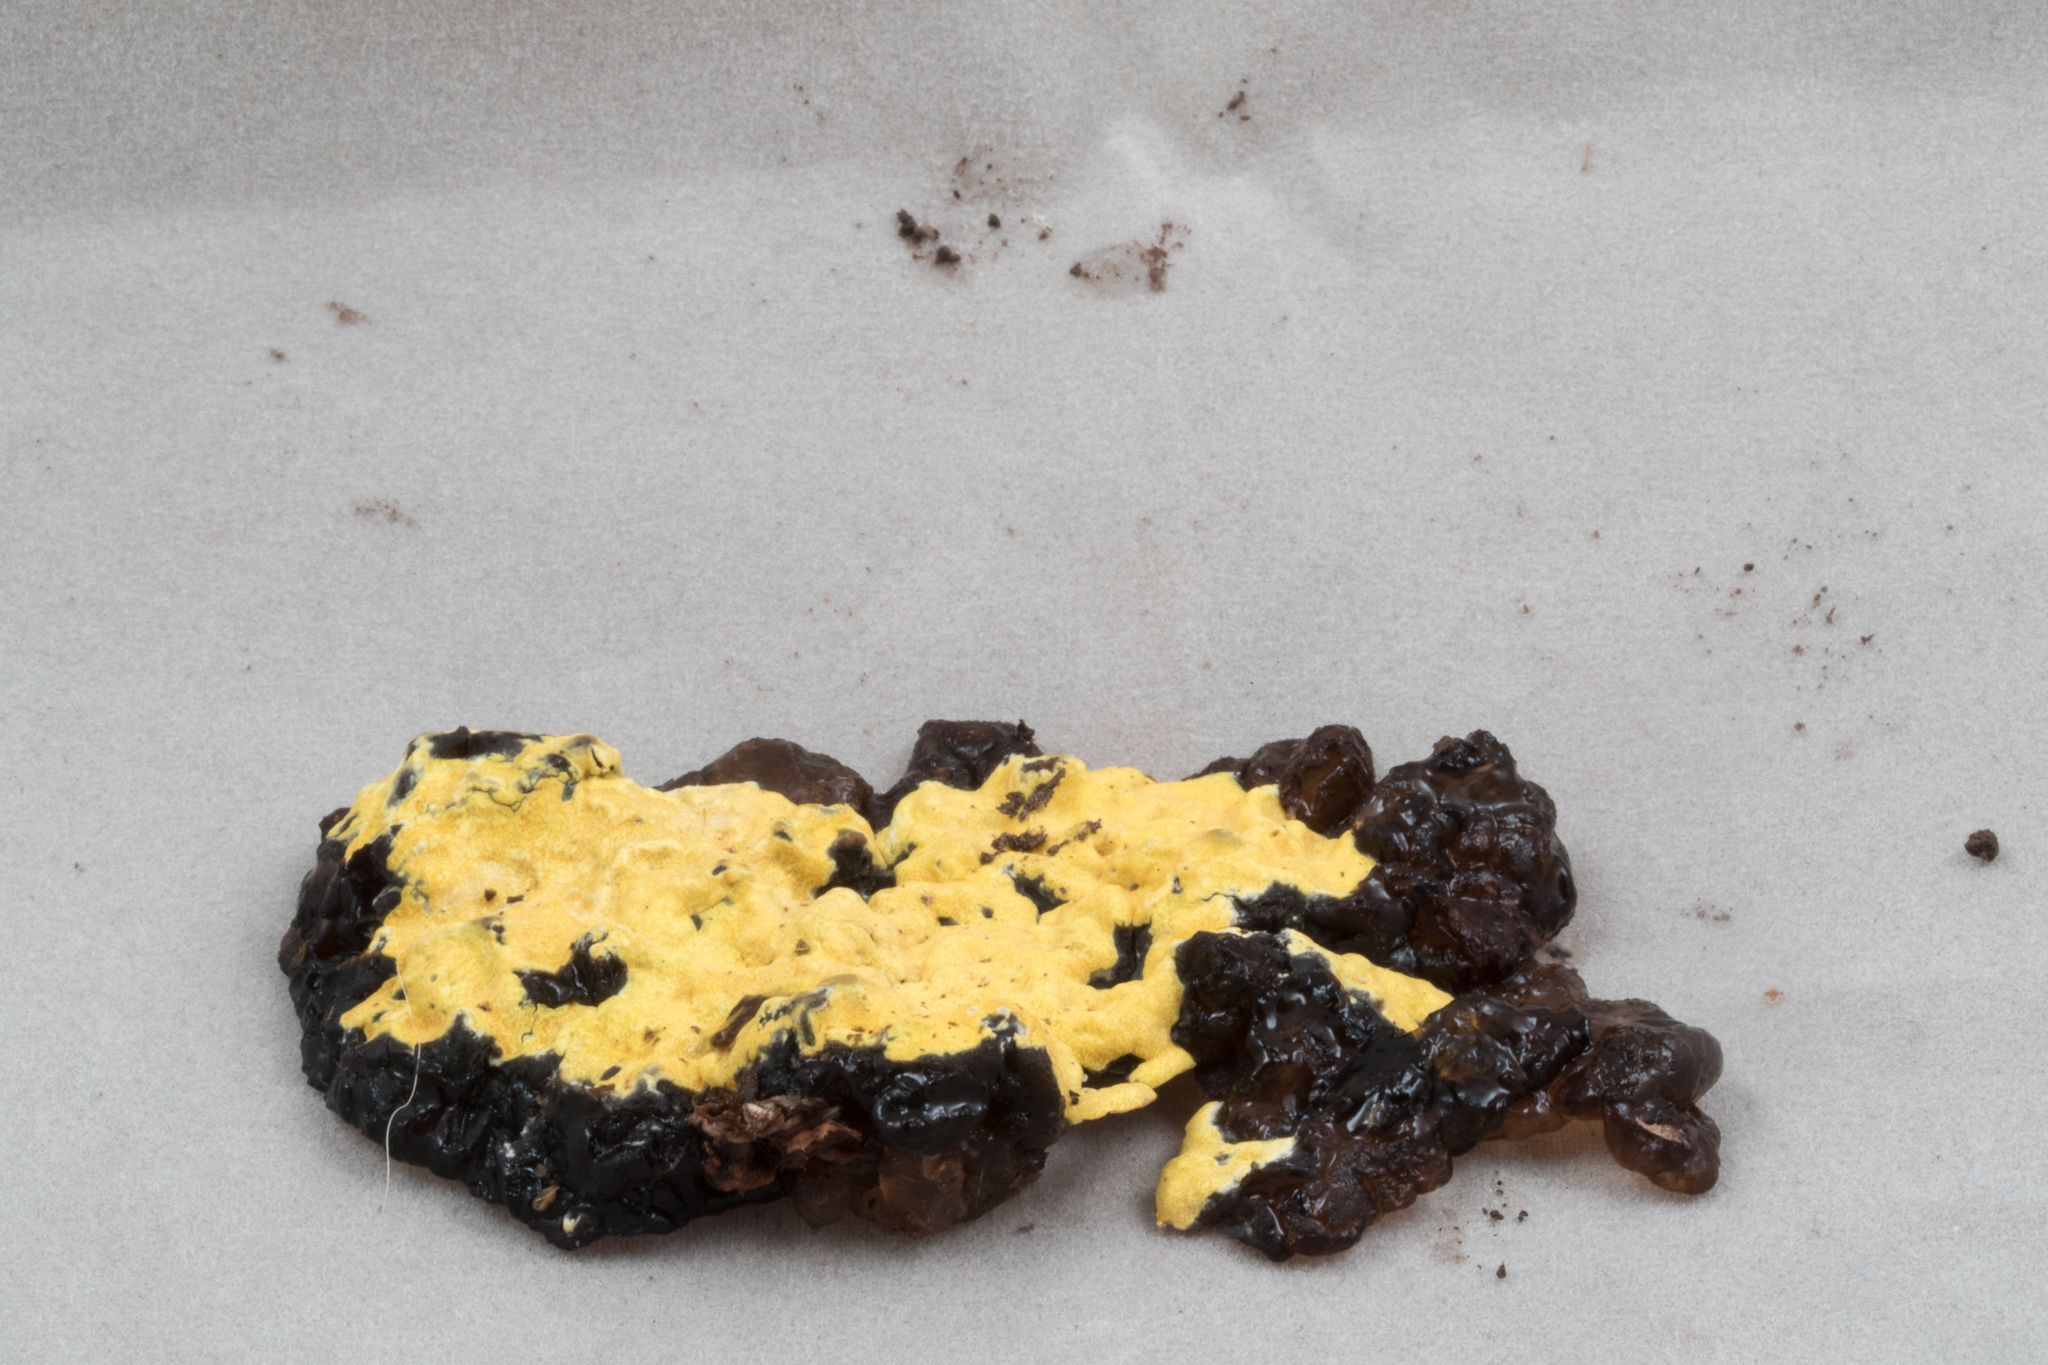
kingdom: Fungi
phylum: Ascomycota
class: Sordariomycetes
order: Hypocreales
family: Hypocreaceae
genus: Trichoderma
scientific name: Trichoderma sulphureum
